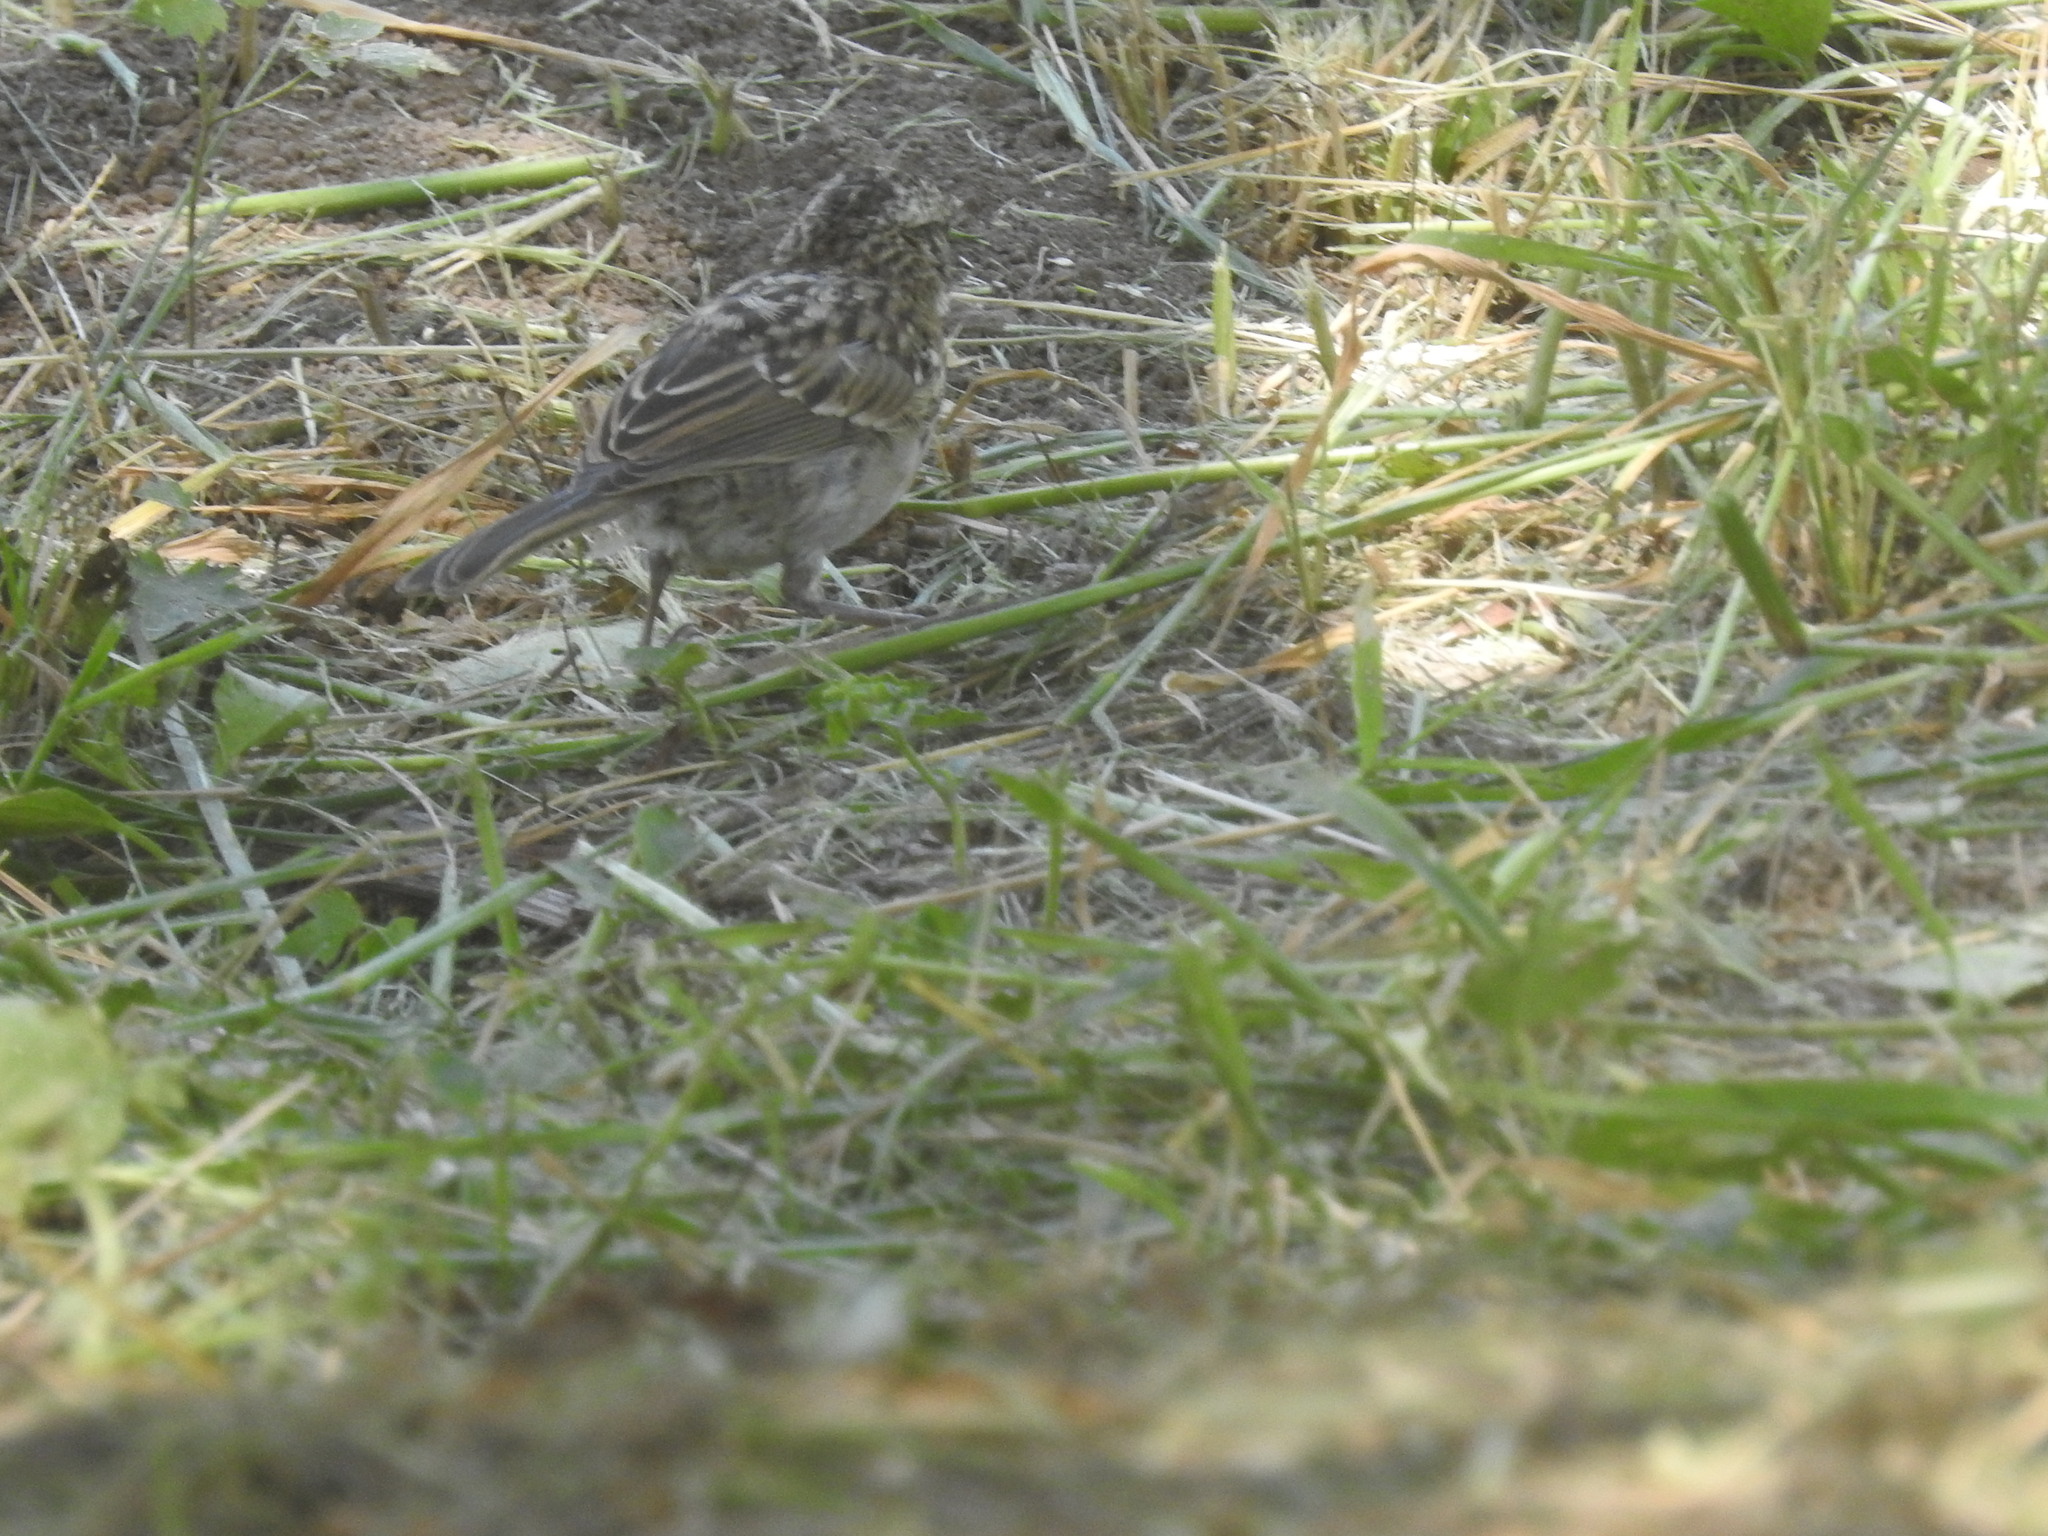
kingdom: Animalia
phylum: Chordata
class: Aves
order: Passeriformes
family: Passerellidae
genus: Zonotrichia
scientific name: Zonotrichia capensis
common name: Rufous-collared sparrow
